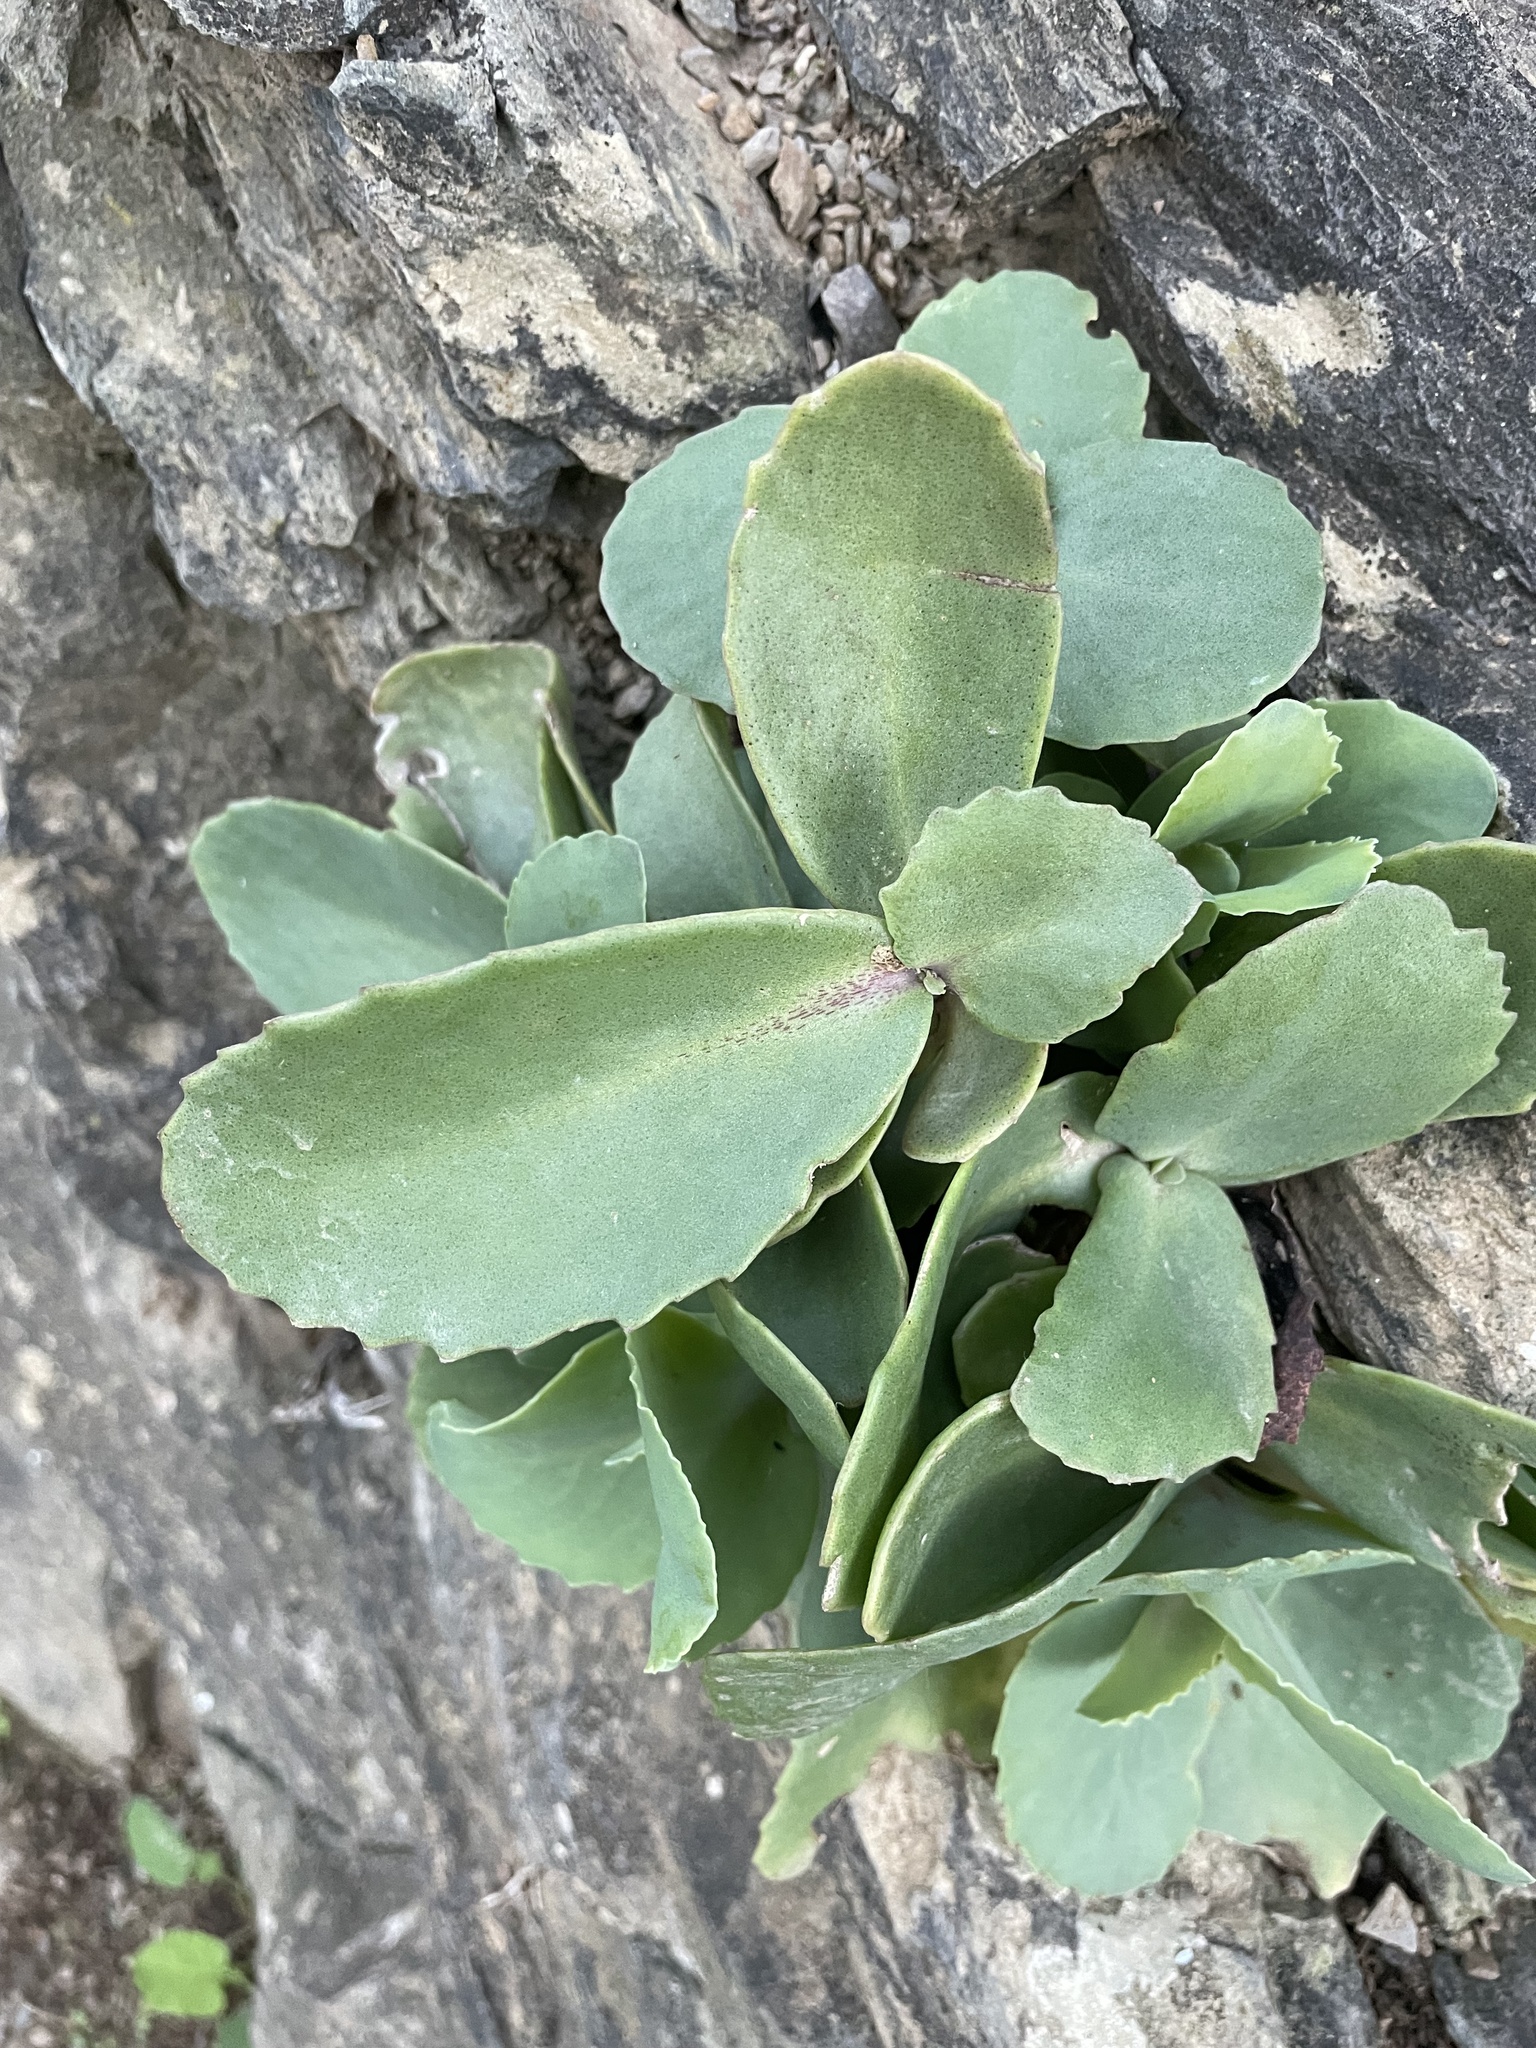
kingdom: Plantae
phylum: Tracheophyta
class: Magnoliopsida
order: Saxifragales
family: Crassulaceae
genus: Hylotelephium
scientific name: Hylotelephium maximum
